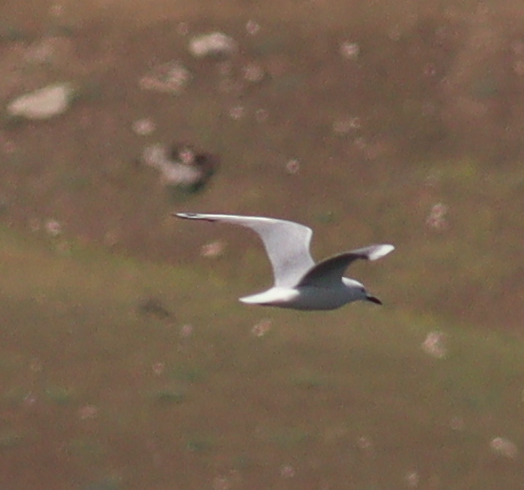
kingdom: Animalia
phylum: Chordata
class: Aves
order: Charadriiformes
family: Laridae
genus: Chroicocephalus
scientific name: Chroicocephalus genei
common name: Slender-billed gull
